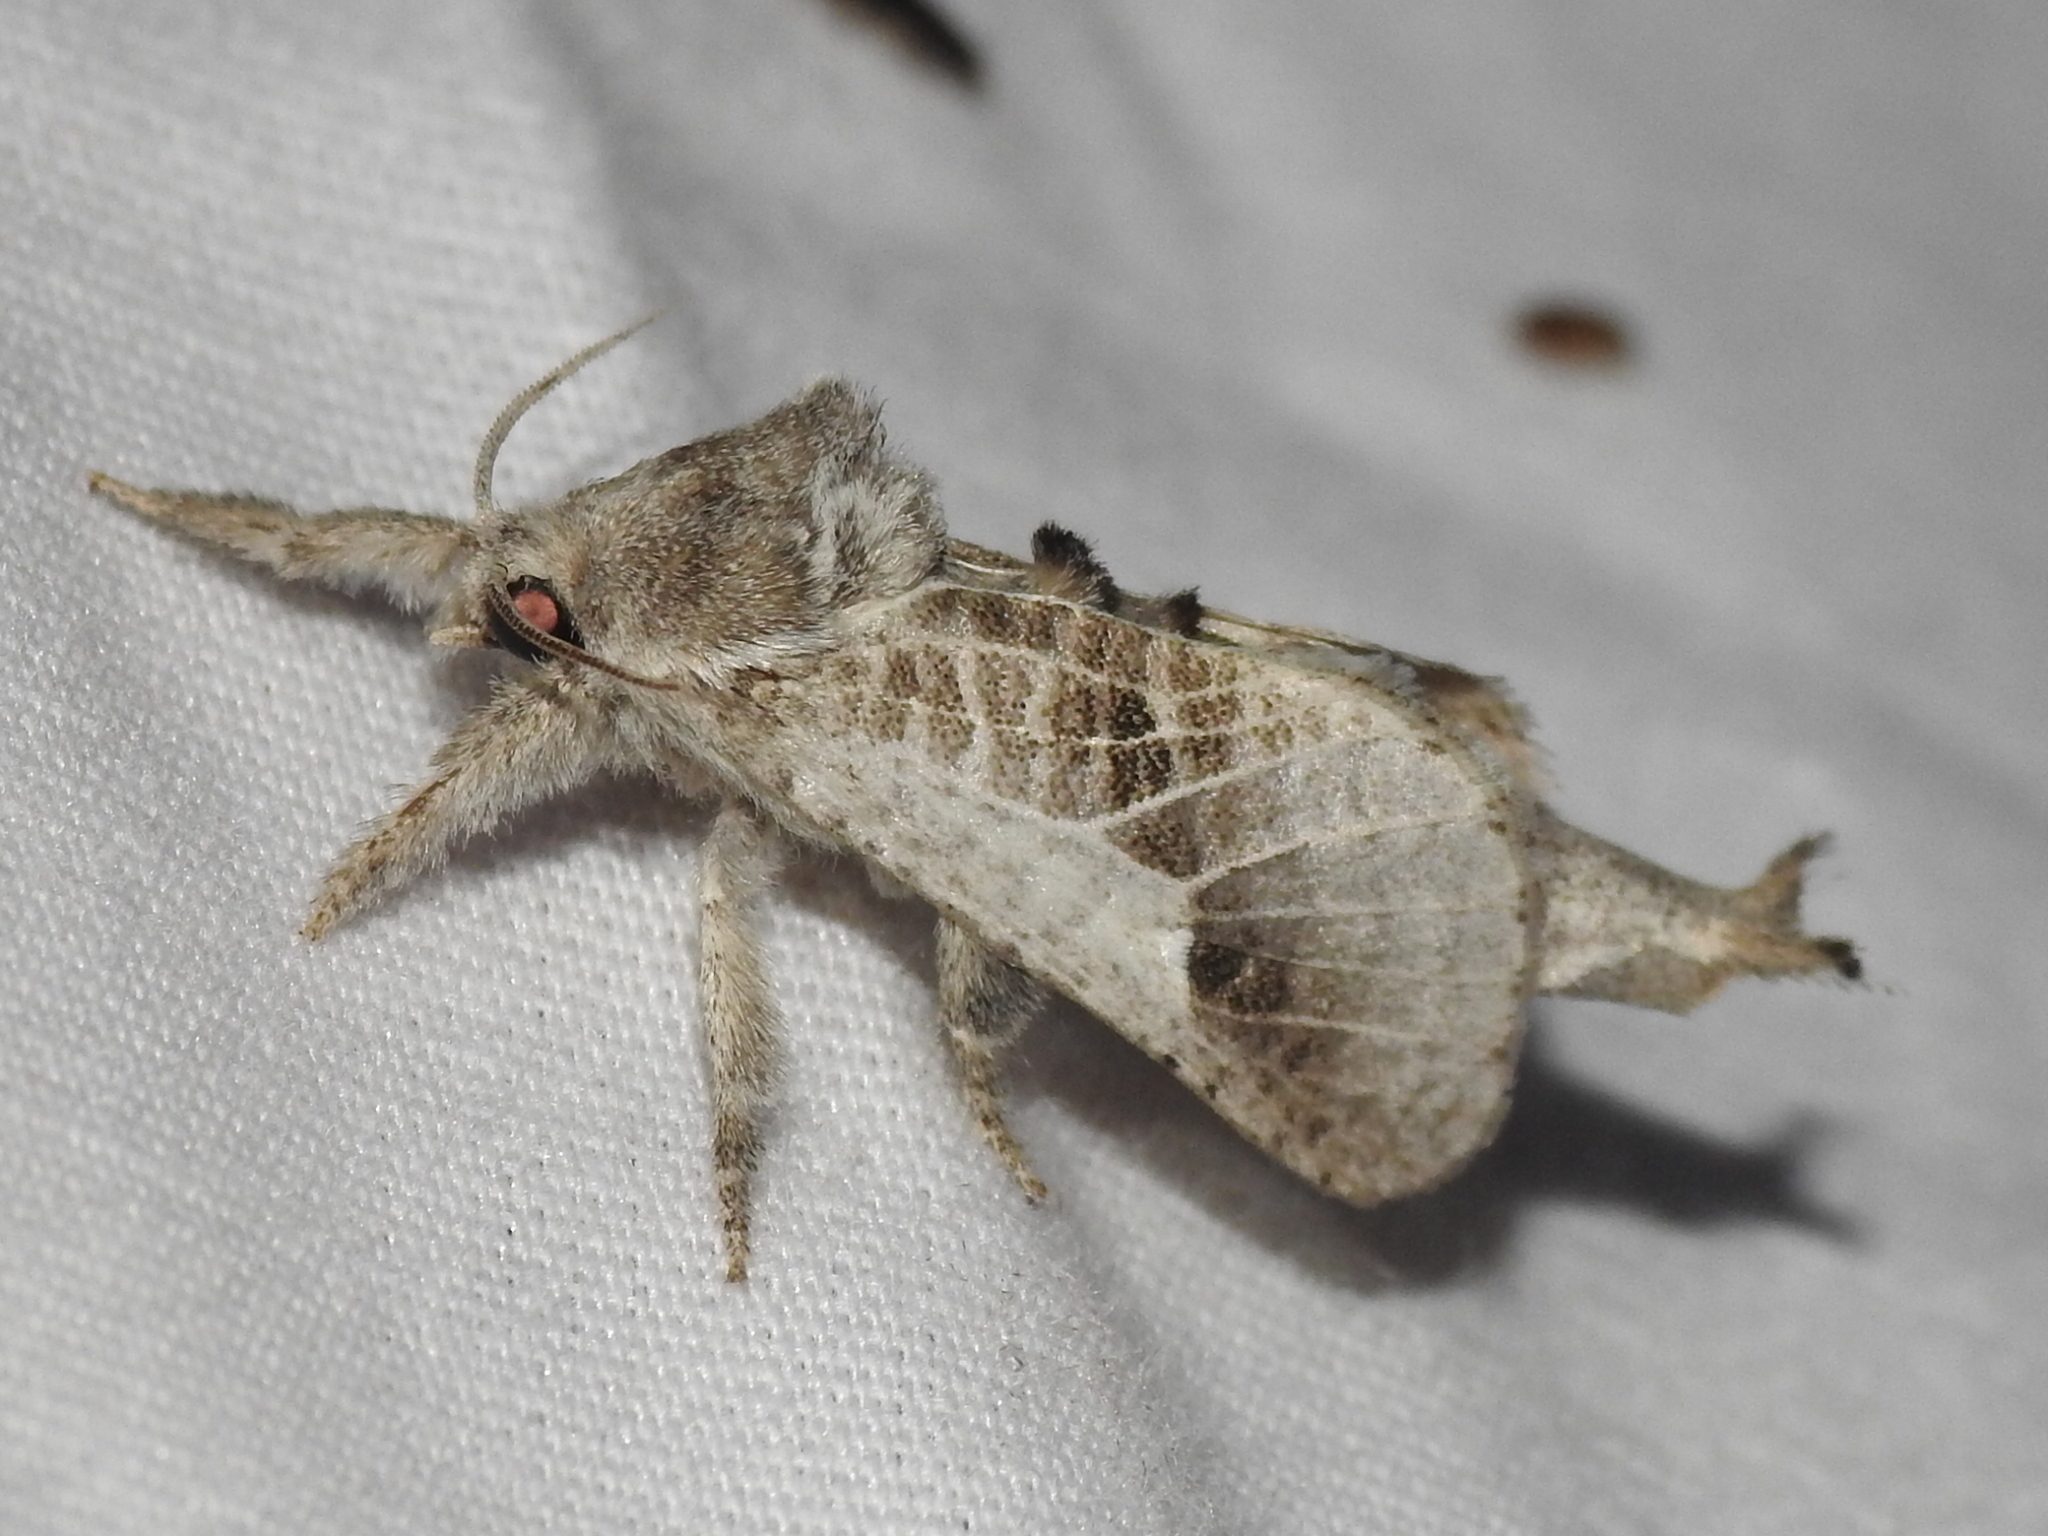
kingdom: Animalia
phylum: Arthropoda
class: Insecta
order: Lepidoptera
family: Cossidae
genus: Givira
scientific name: Givira
